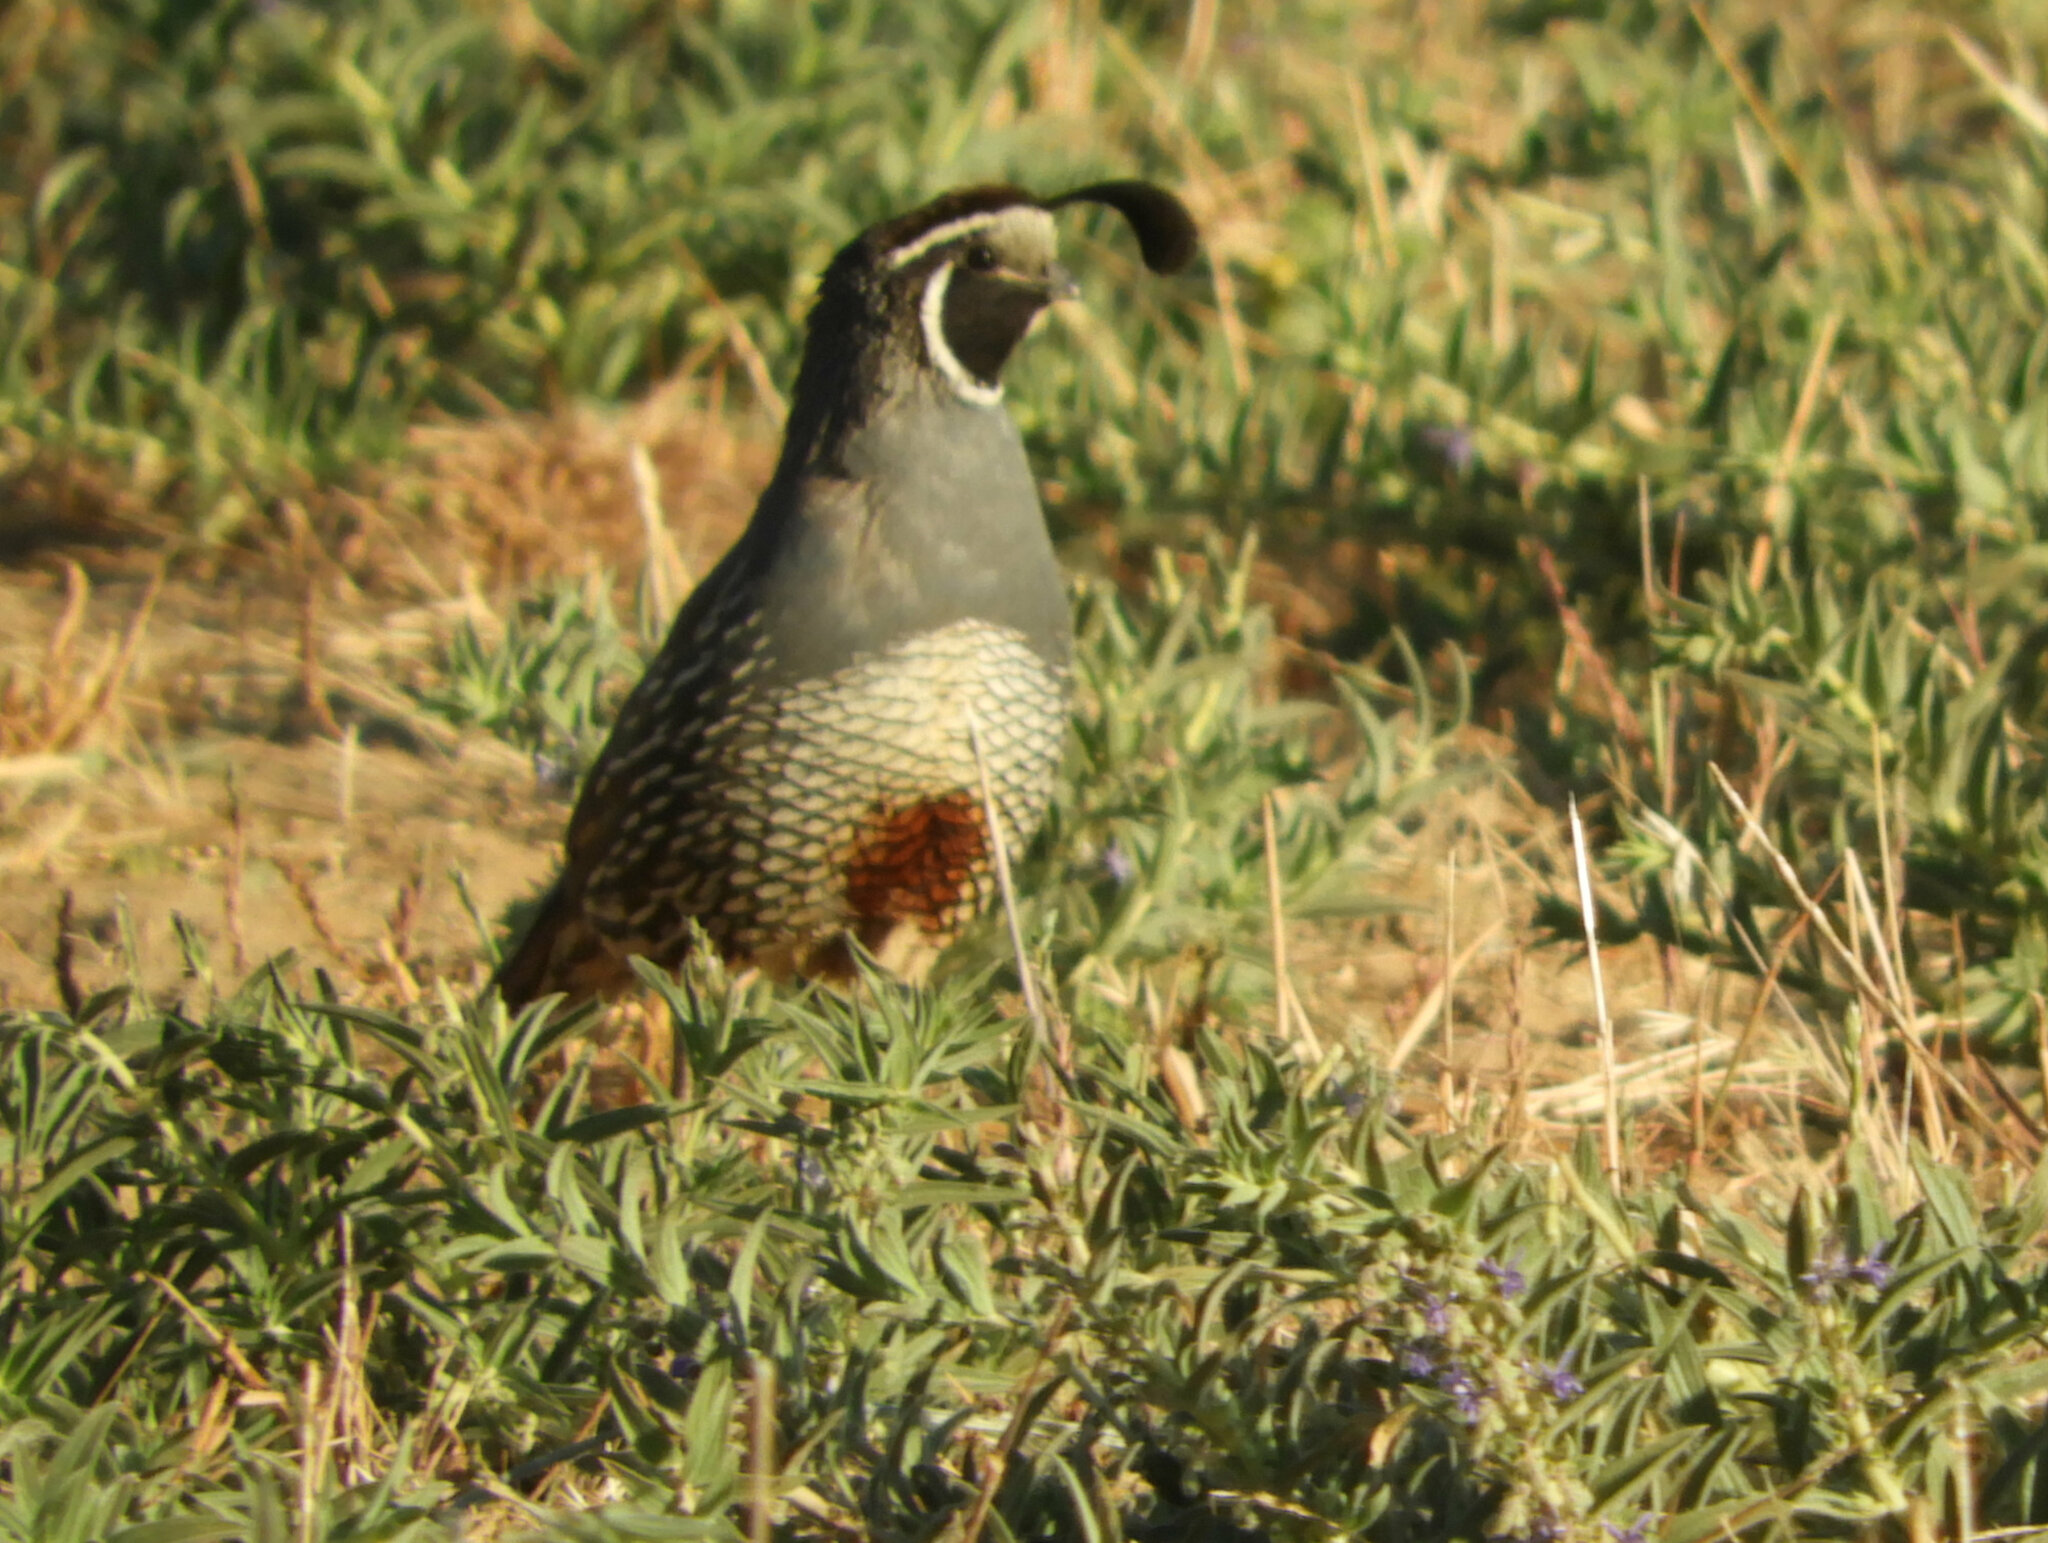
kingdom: Animalia
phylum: Chordata
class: Aves
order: Galliformes
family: Odontophoridae
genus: Callipepla
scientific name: Callipepla californica
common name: California quail
